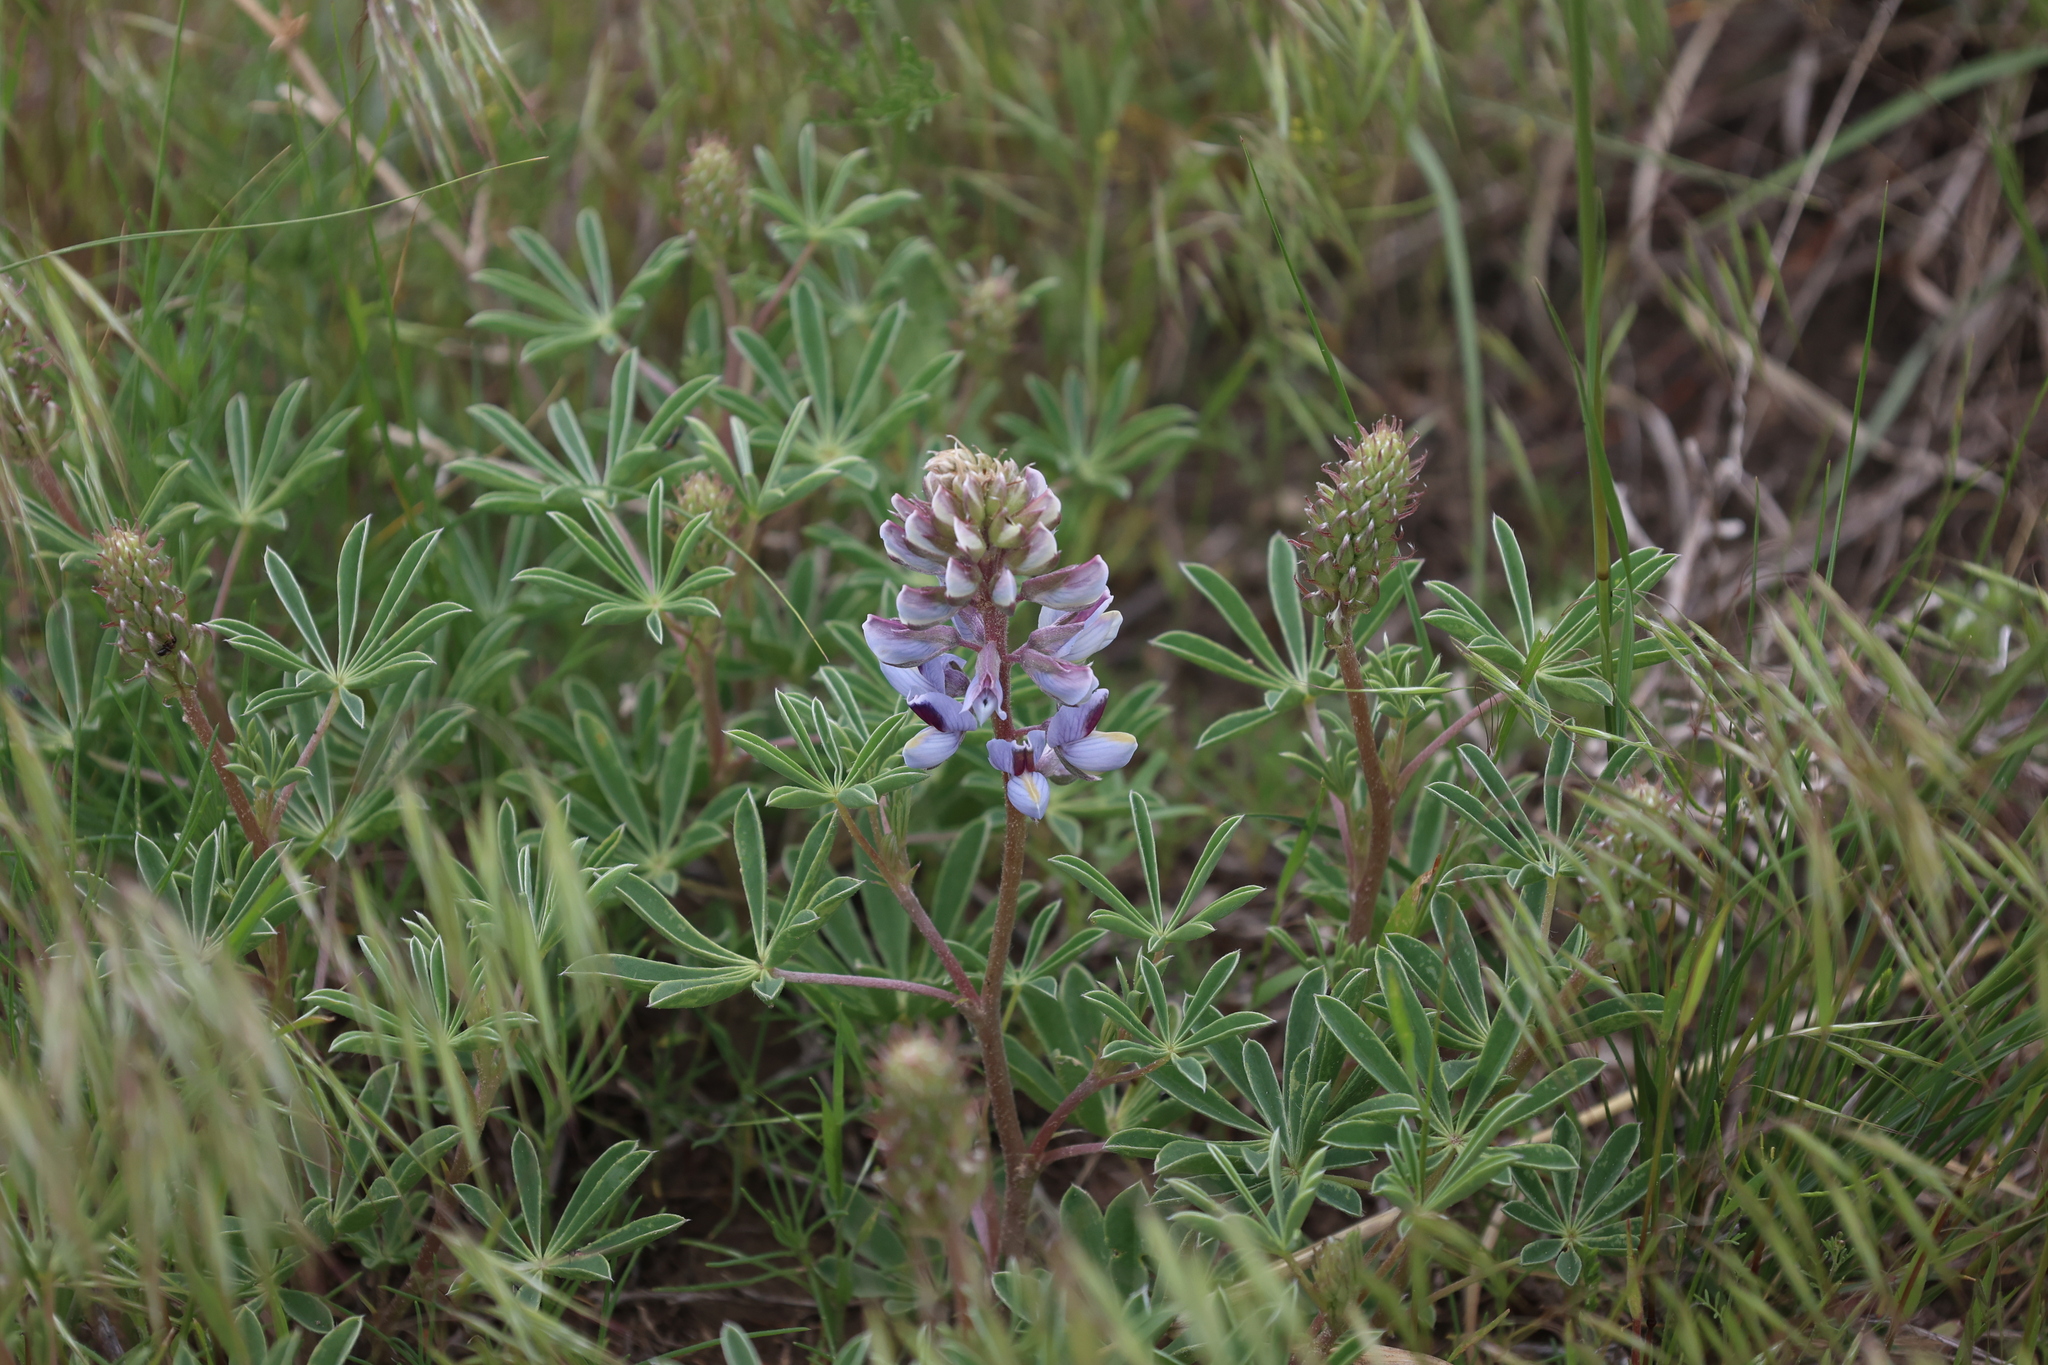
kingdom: Plantae
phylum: Tracheophyta
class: Magnoliopsida
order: Fabales
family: Fabaceae
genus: Lupinus
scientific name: Lupinus plattensis
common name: Platte lupine
